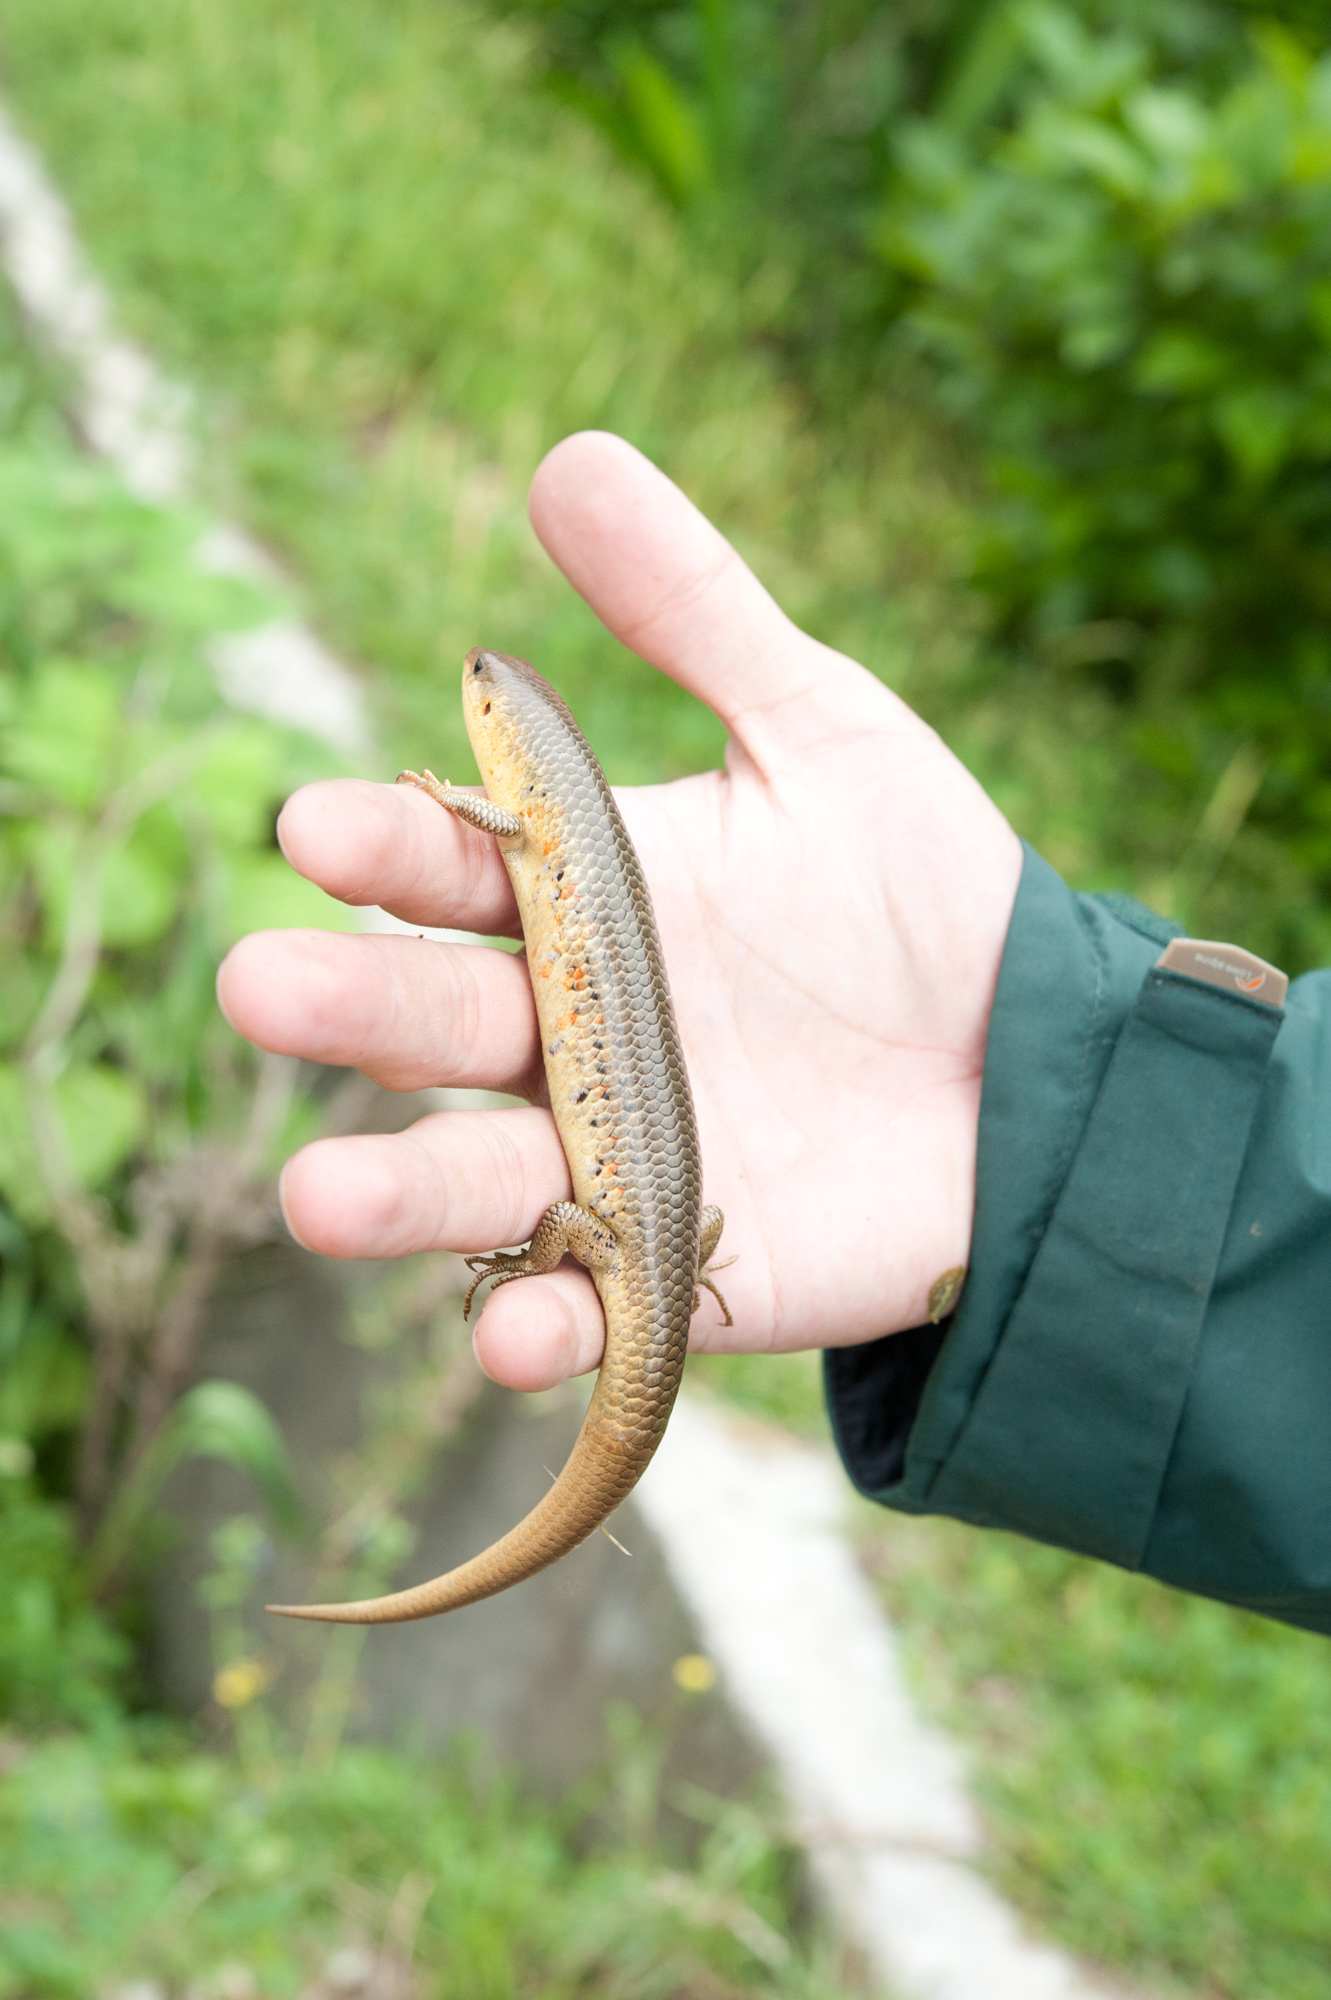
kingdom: Animalia
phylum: Chordata
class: Squamata
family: Scincidae
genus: Plestiodon
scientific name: Plestiodon chinensis
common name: Chinese blue-tailed skink
